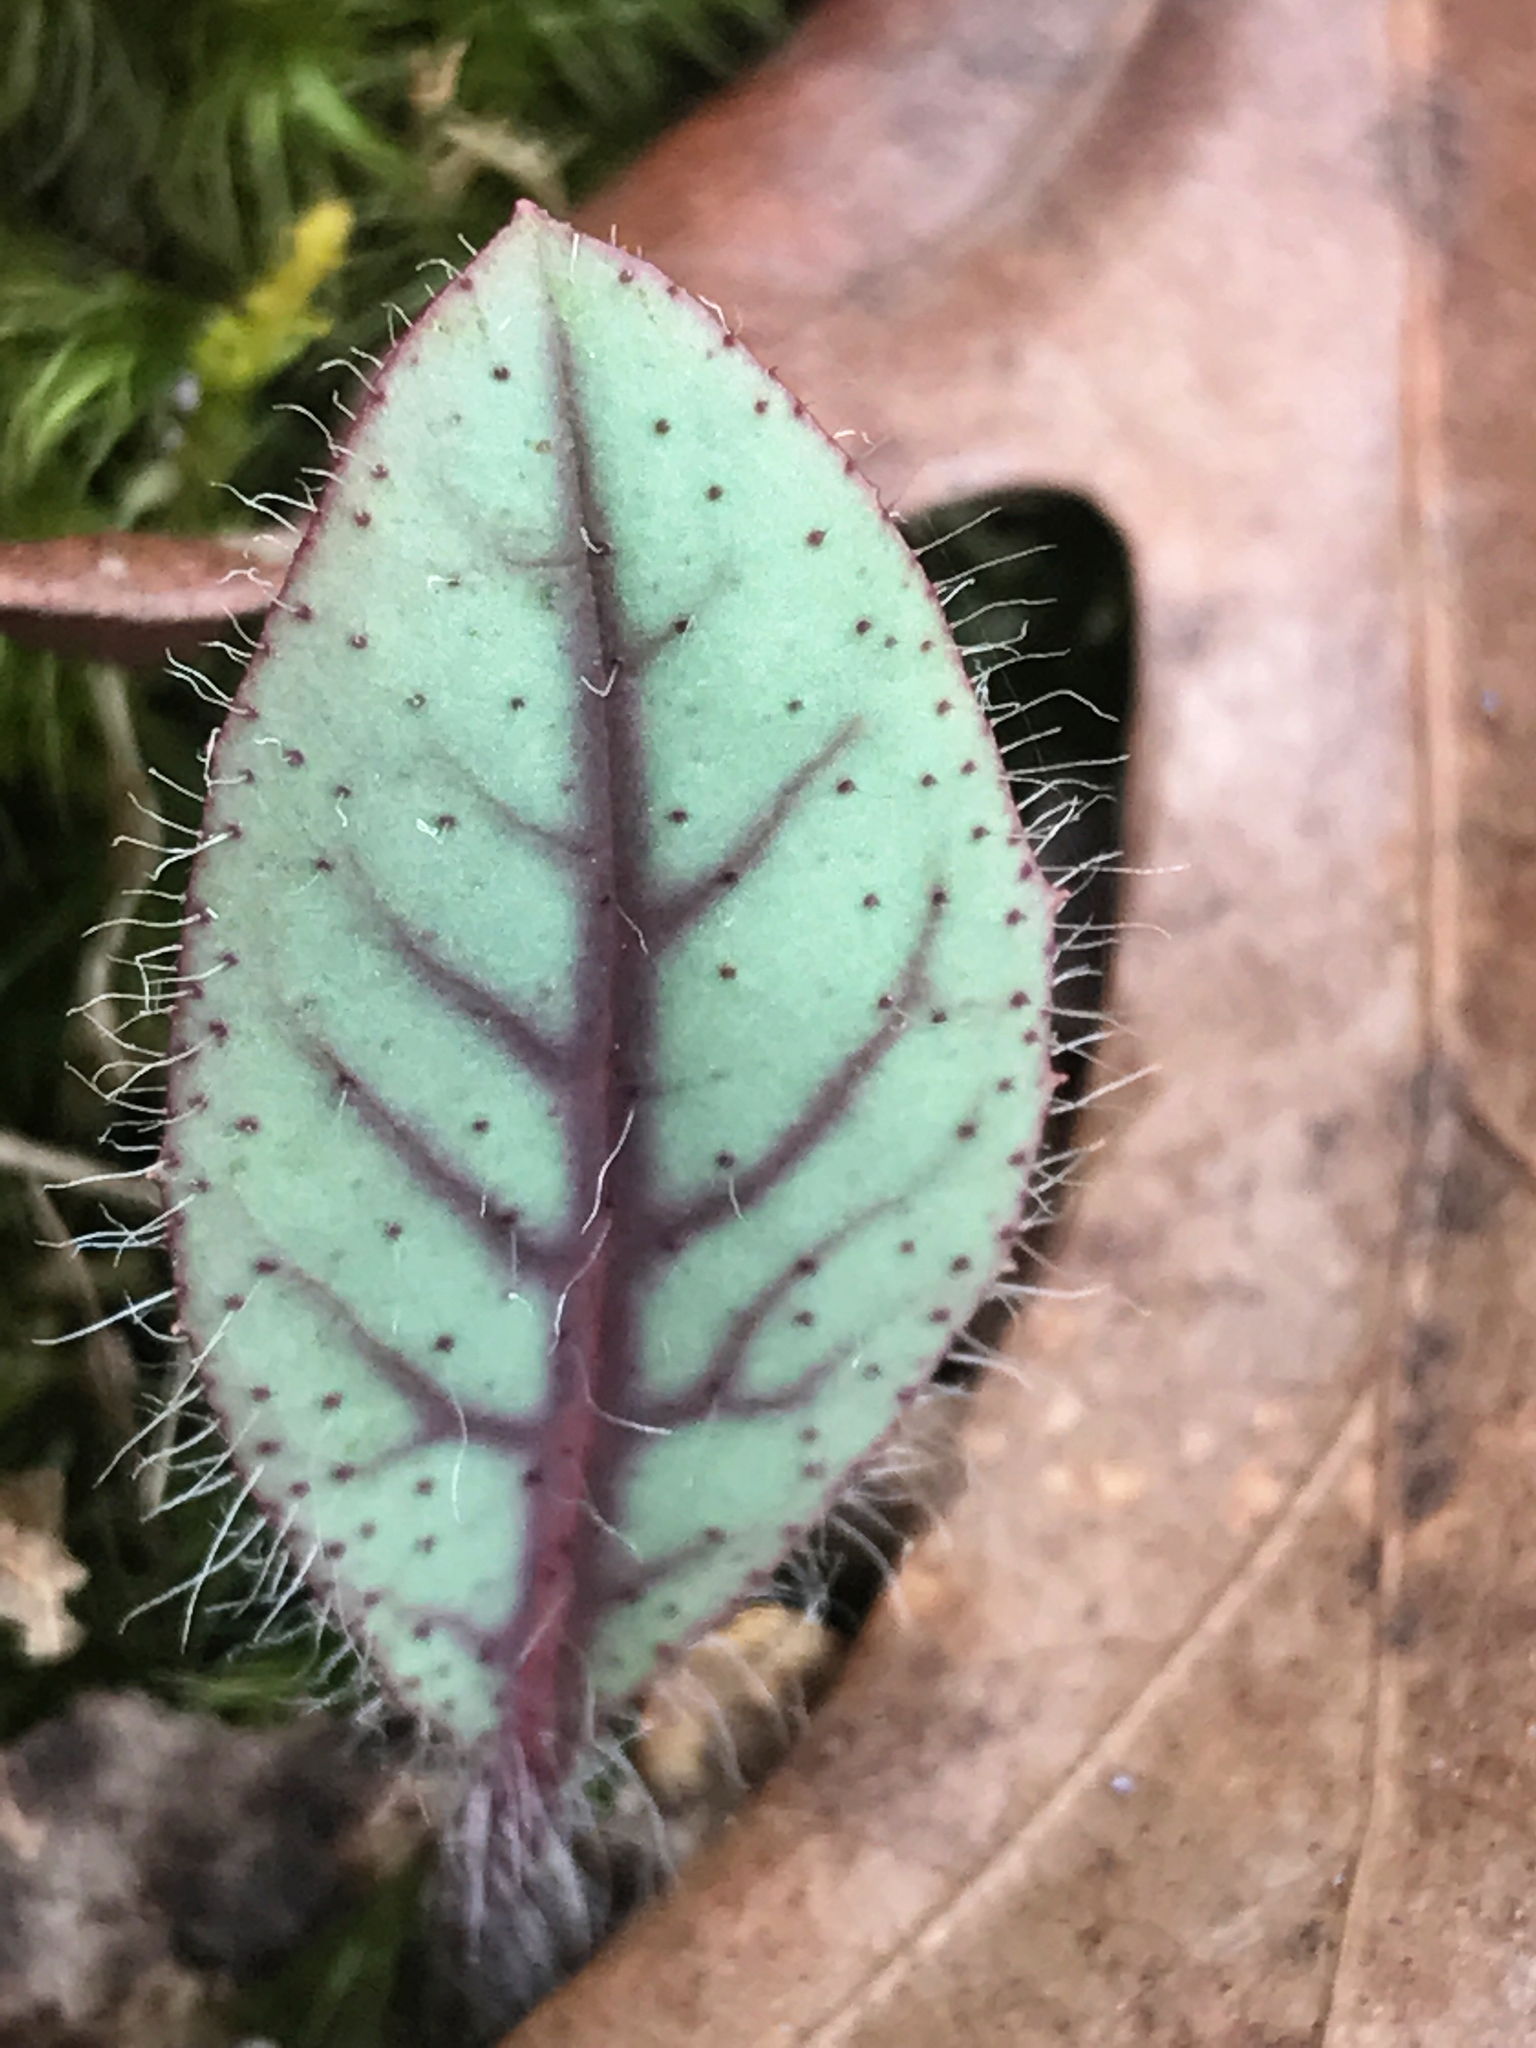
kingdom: Plantae
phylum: Tracheophyta
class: Magnoliopsida
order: Asterales
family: Asteraceae
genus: Hieracium
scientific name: Hieracium venosum
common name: Rattlesnake hawkweed
